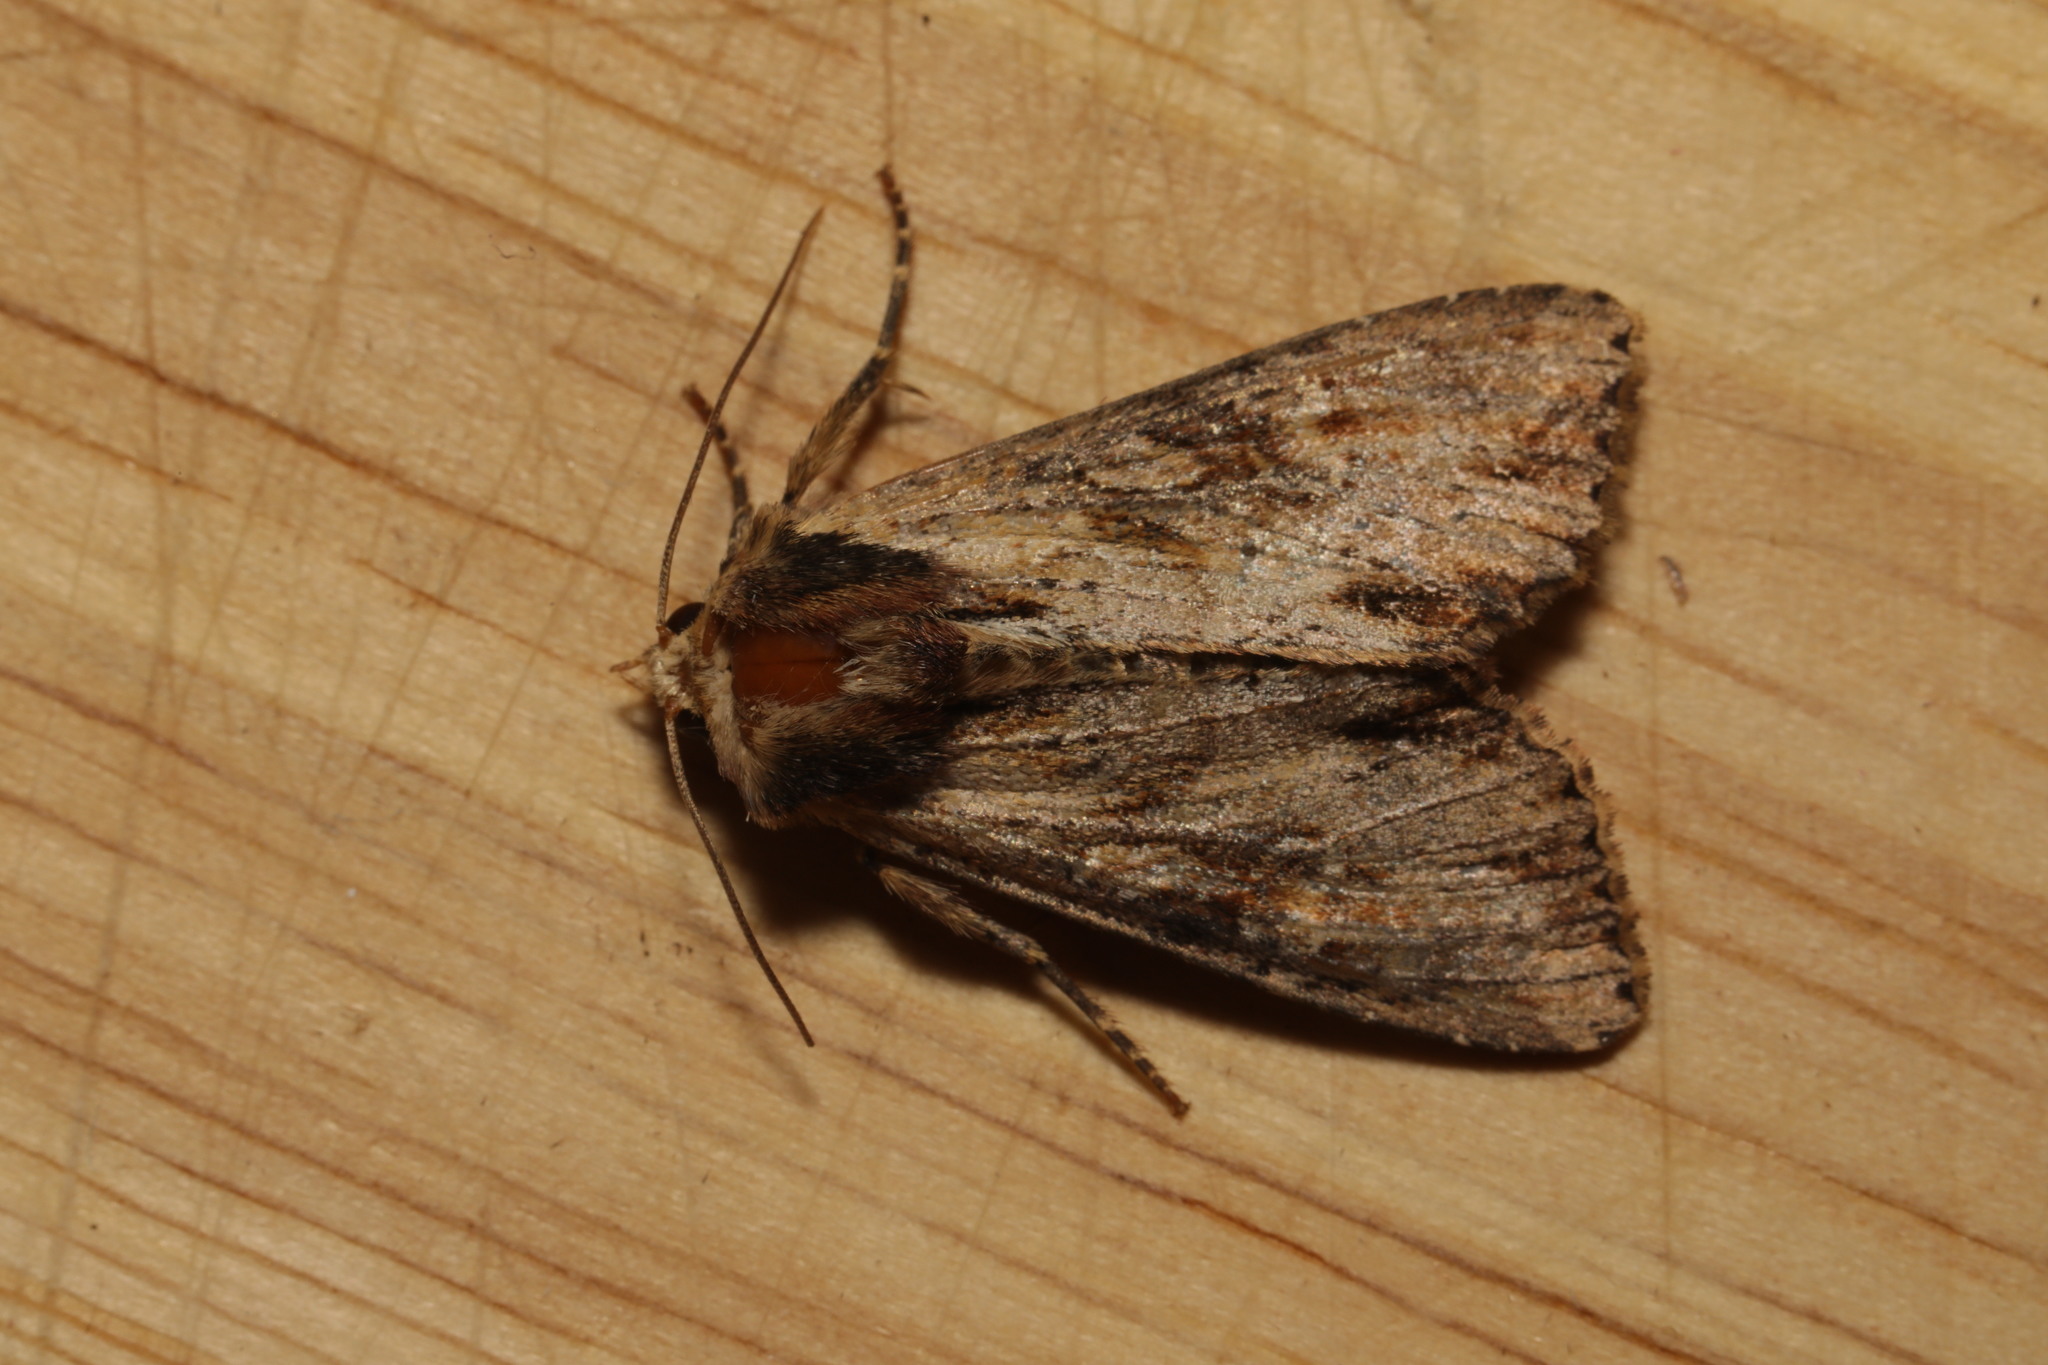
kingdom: Animalia
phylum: Arthropoda
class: Insecta
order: Lepidoptera
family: Noctuidae
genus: Apamea
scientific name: Apamea crenata
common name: Clouded-bordered brindle
